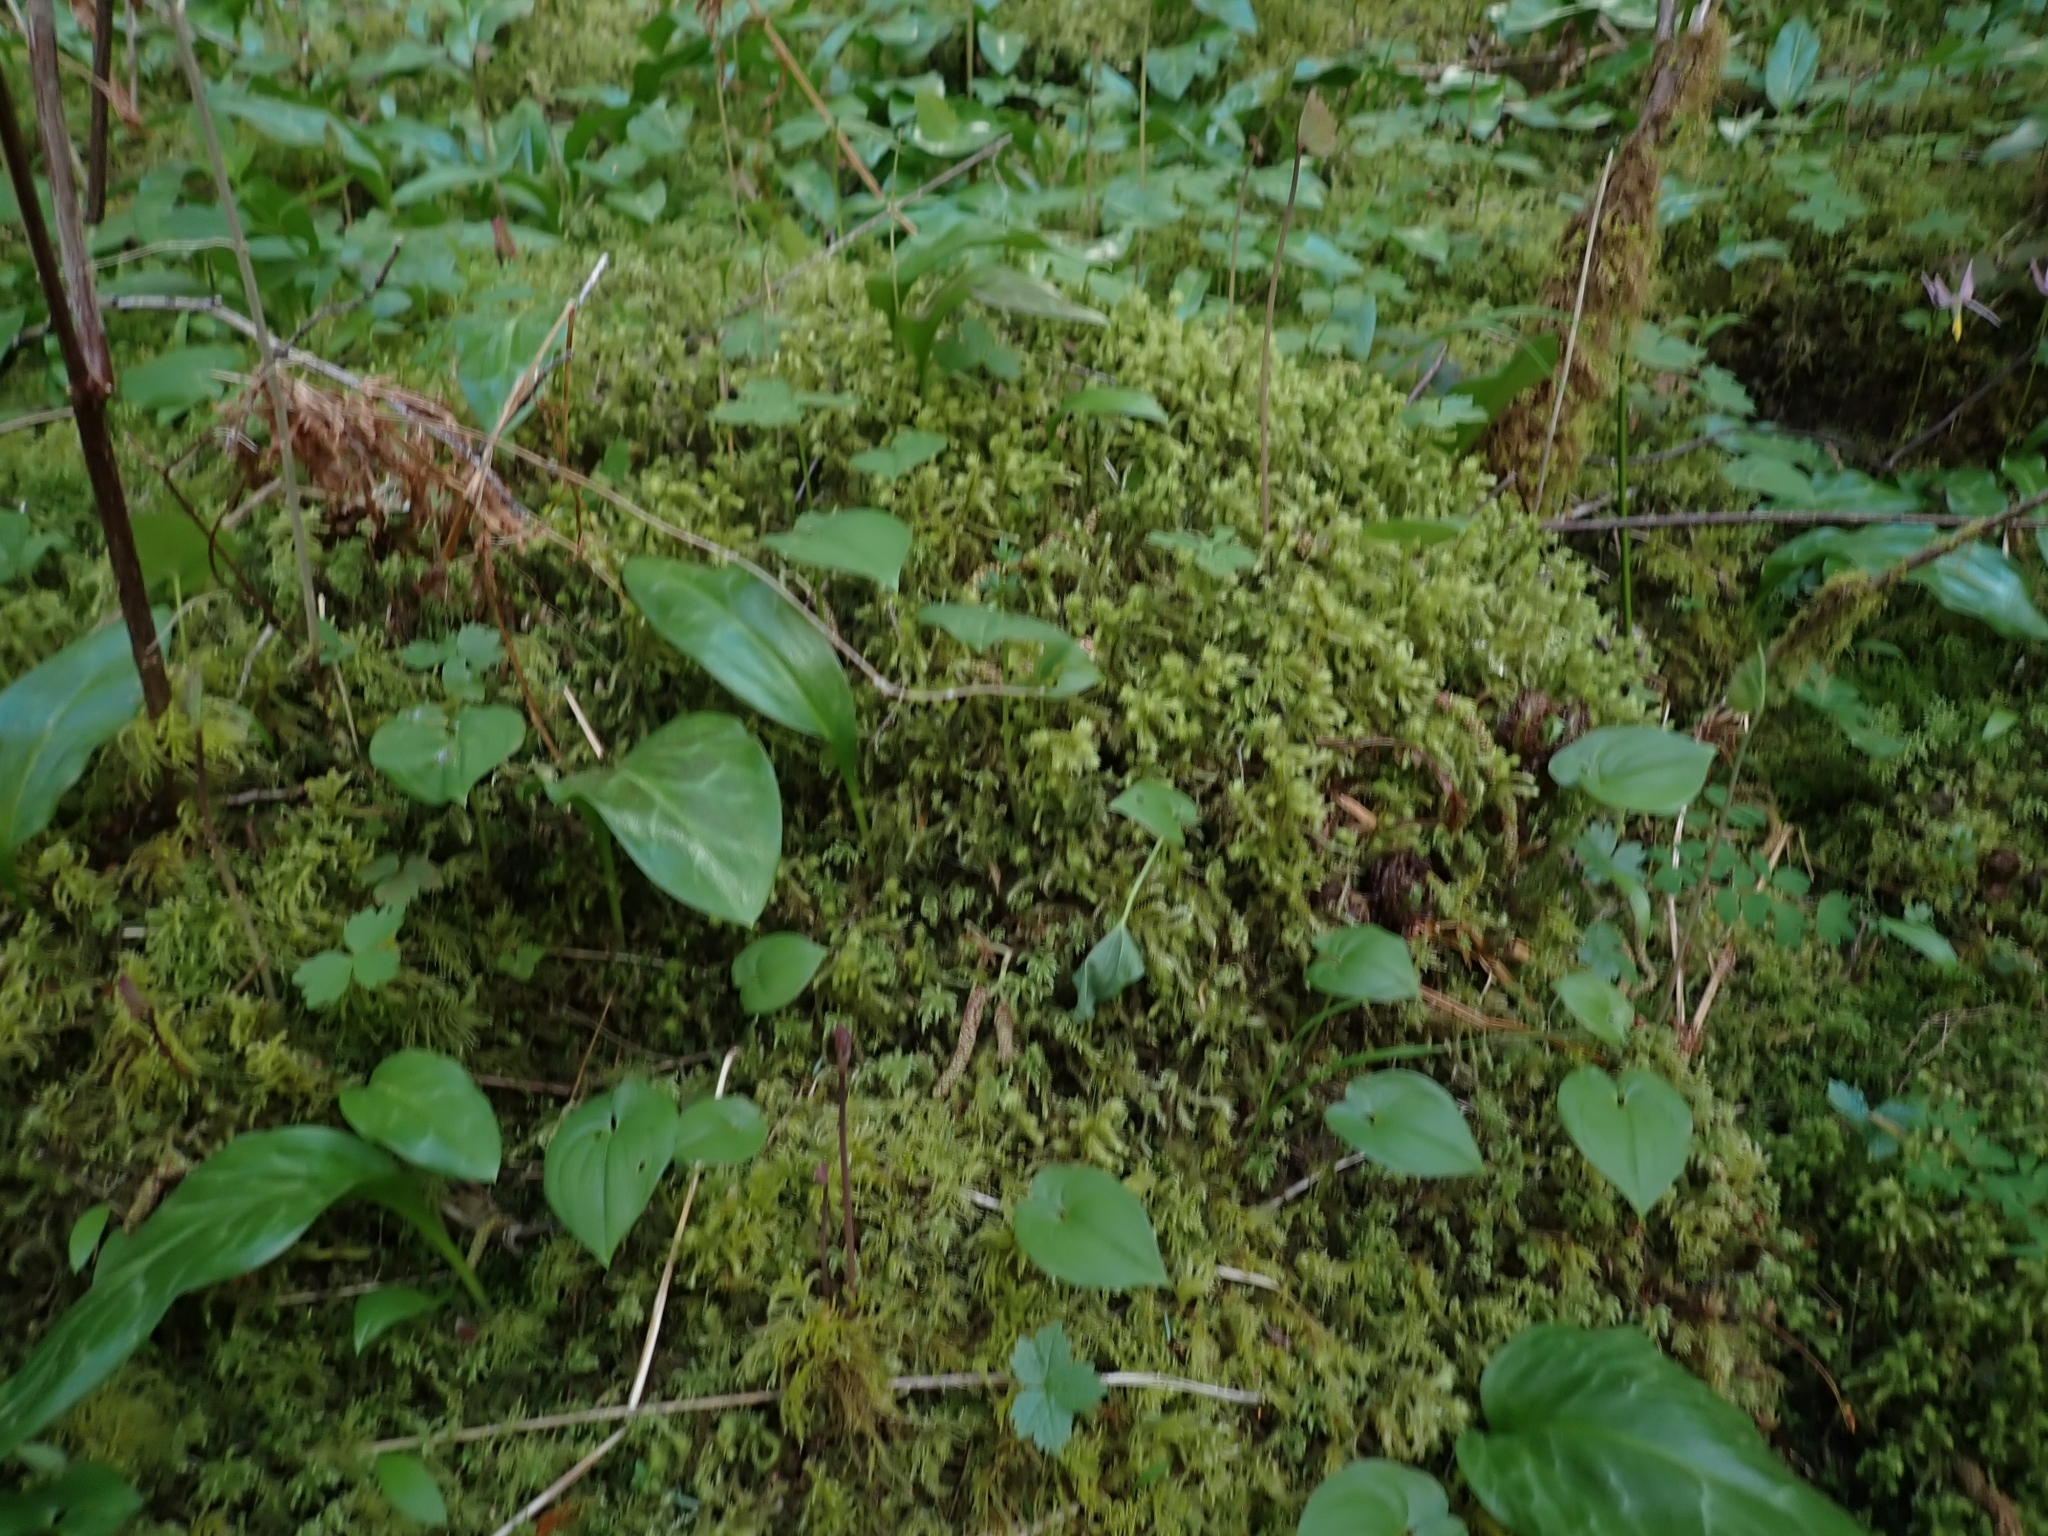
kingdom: Plantae
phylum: Bryophyta
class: Bryopsida
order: Hypnales
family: Hylocomiaceae
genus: Hylocomiadelphus
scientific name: Hylocomiadelphus triquetrus
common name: Rough goose neck moss
